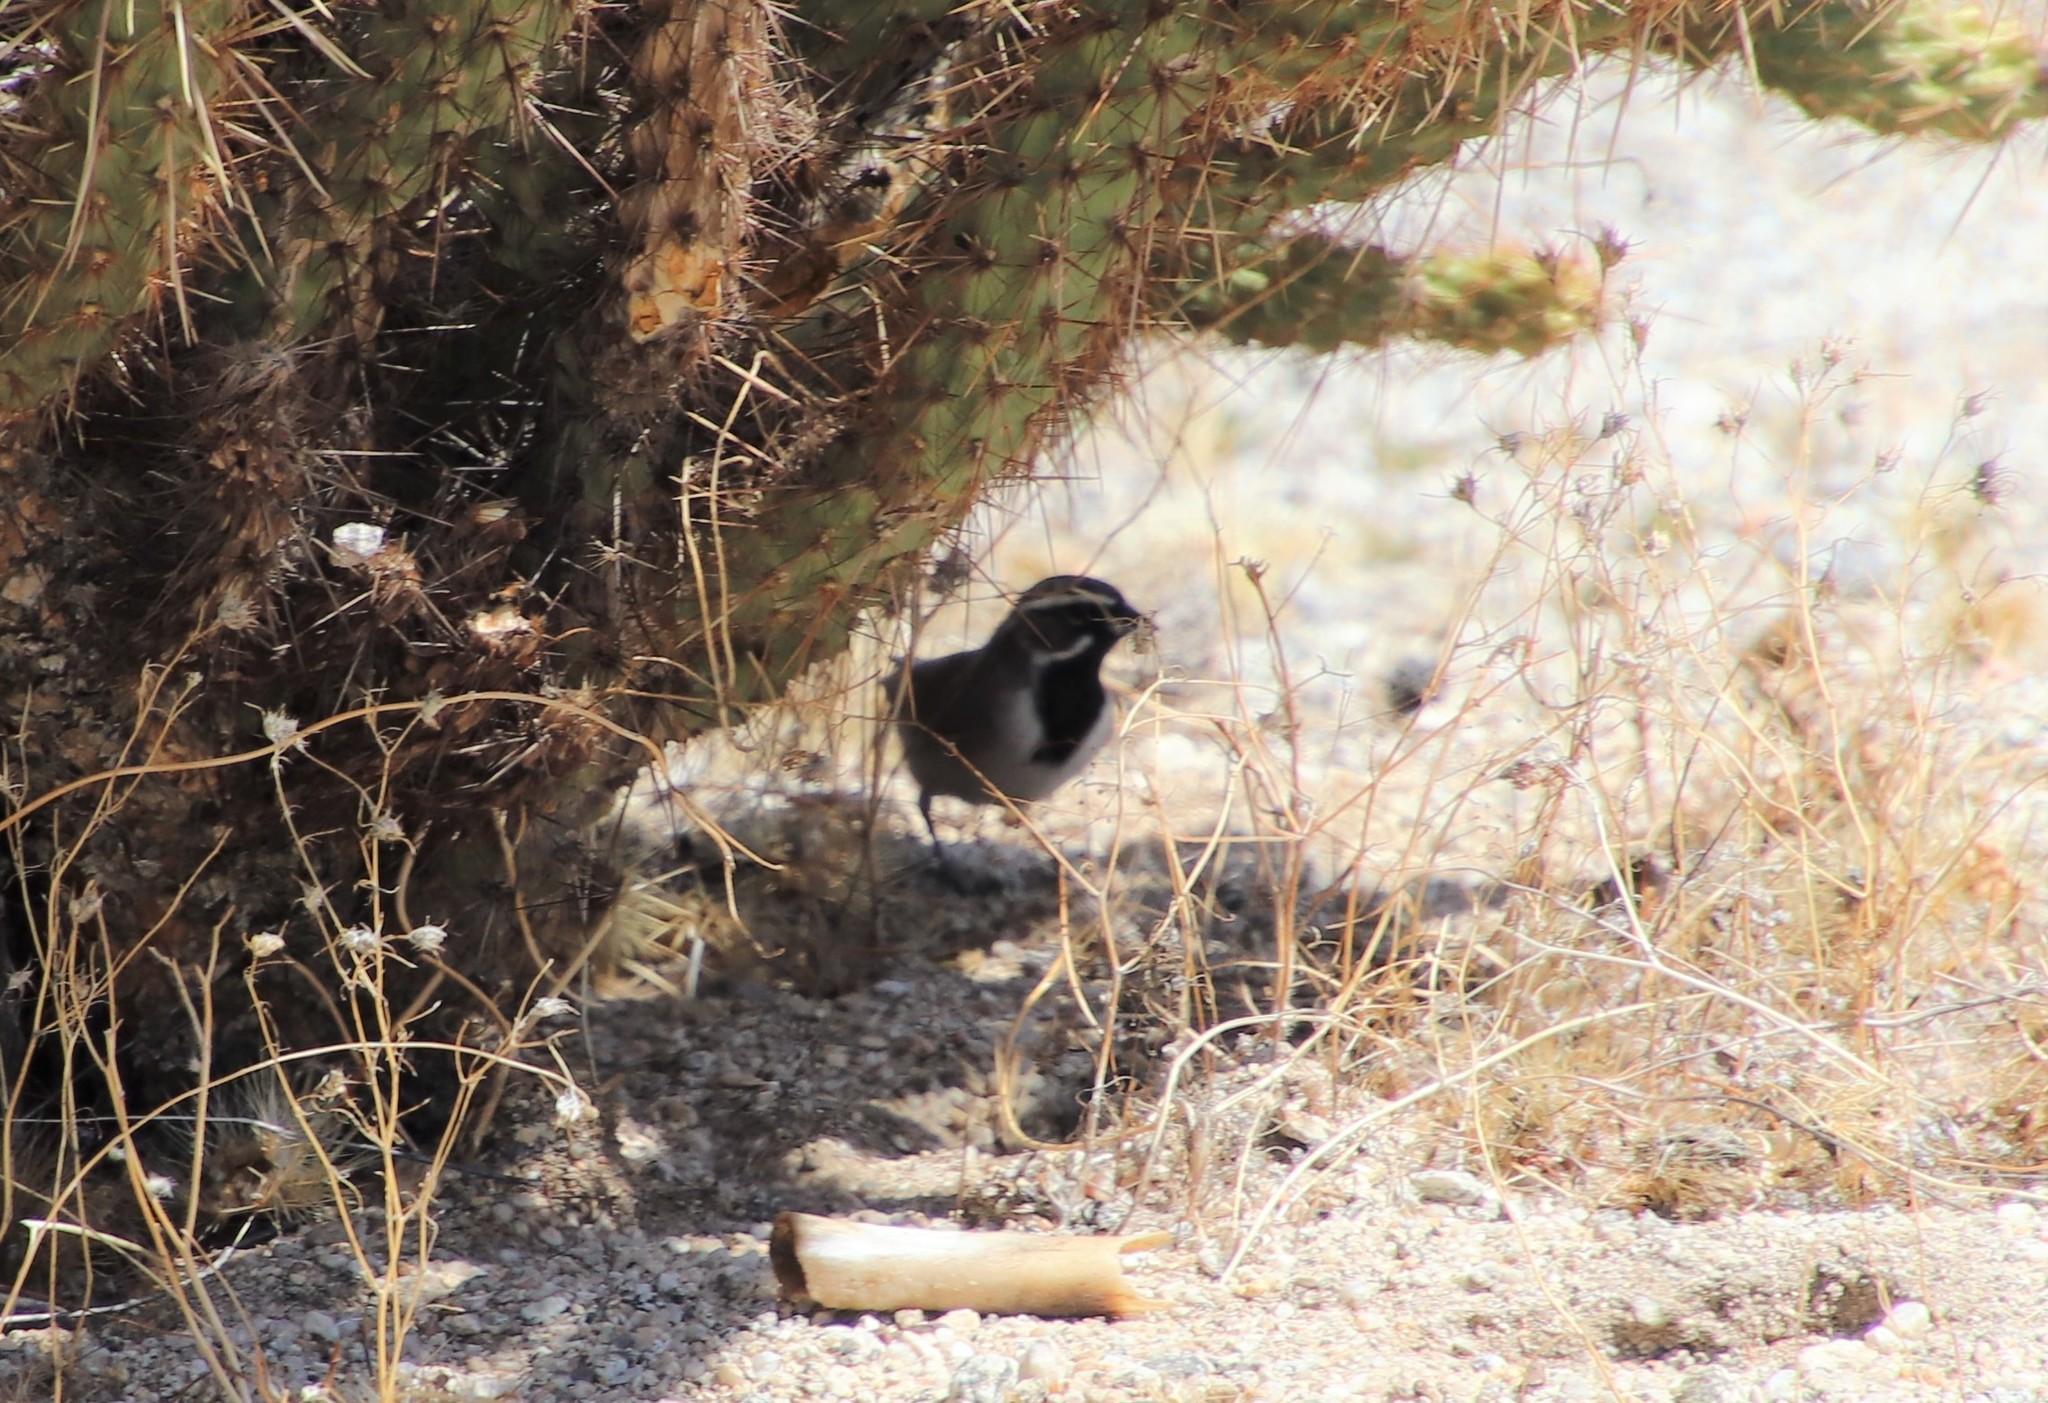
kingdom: Animalia
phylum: Chordata
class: Aves
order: Passeriformes
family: Passerellidae
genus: Amphispiza
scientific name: Amphispiza bilineata
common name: Black-throated sparrow
